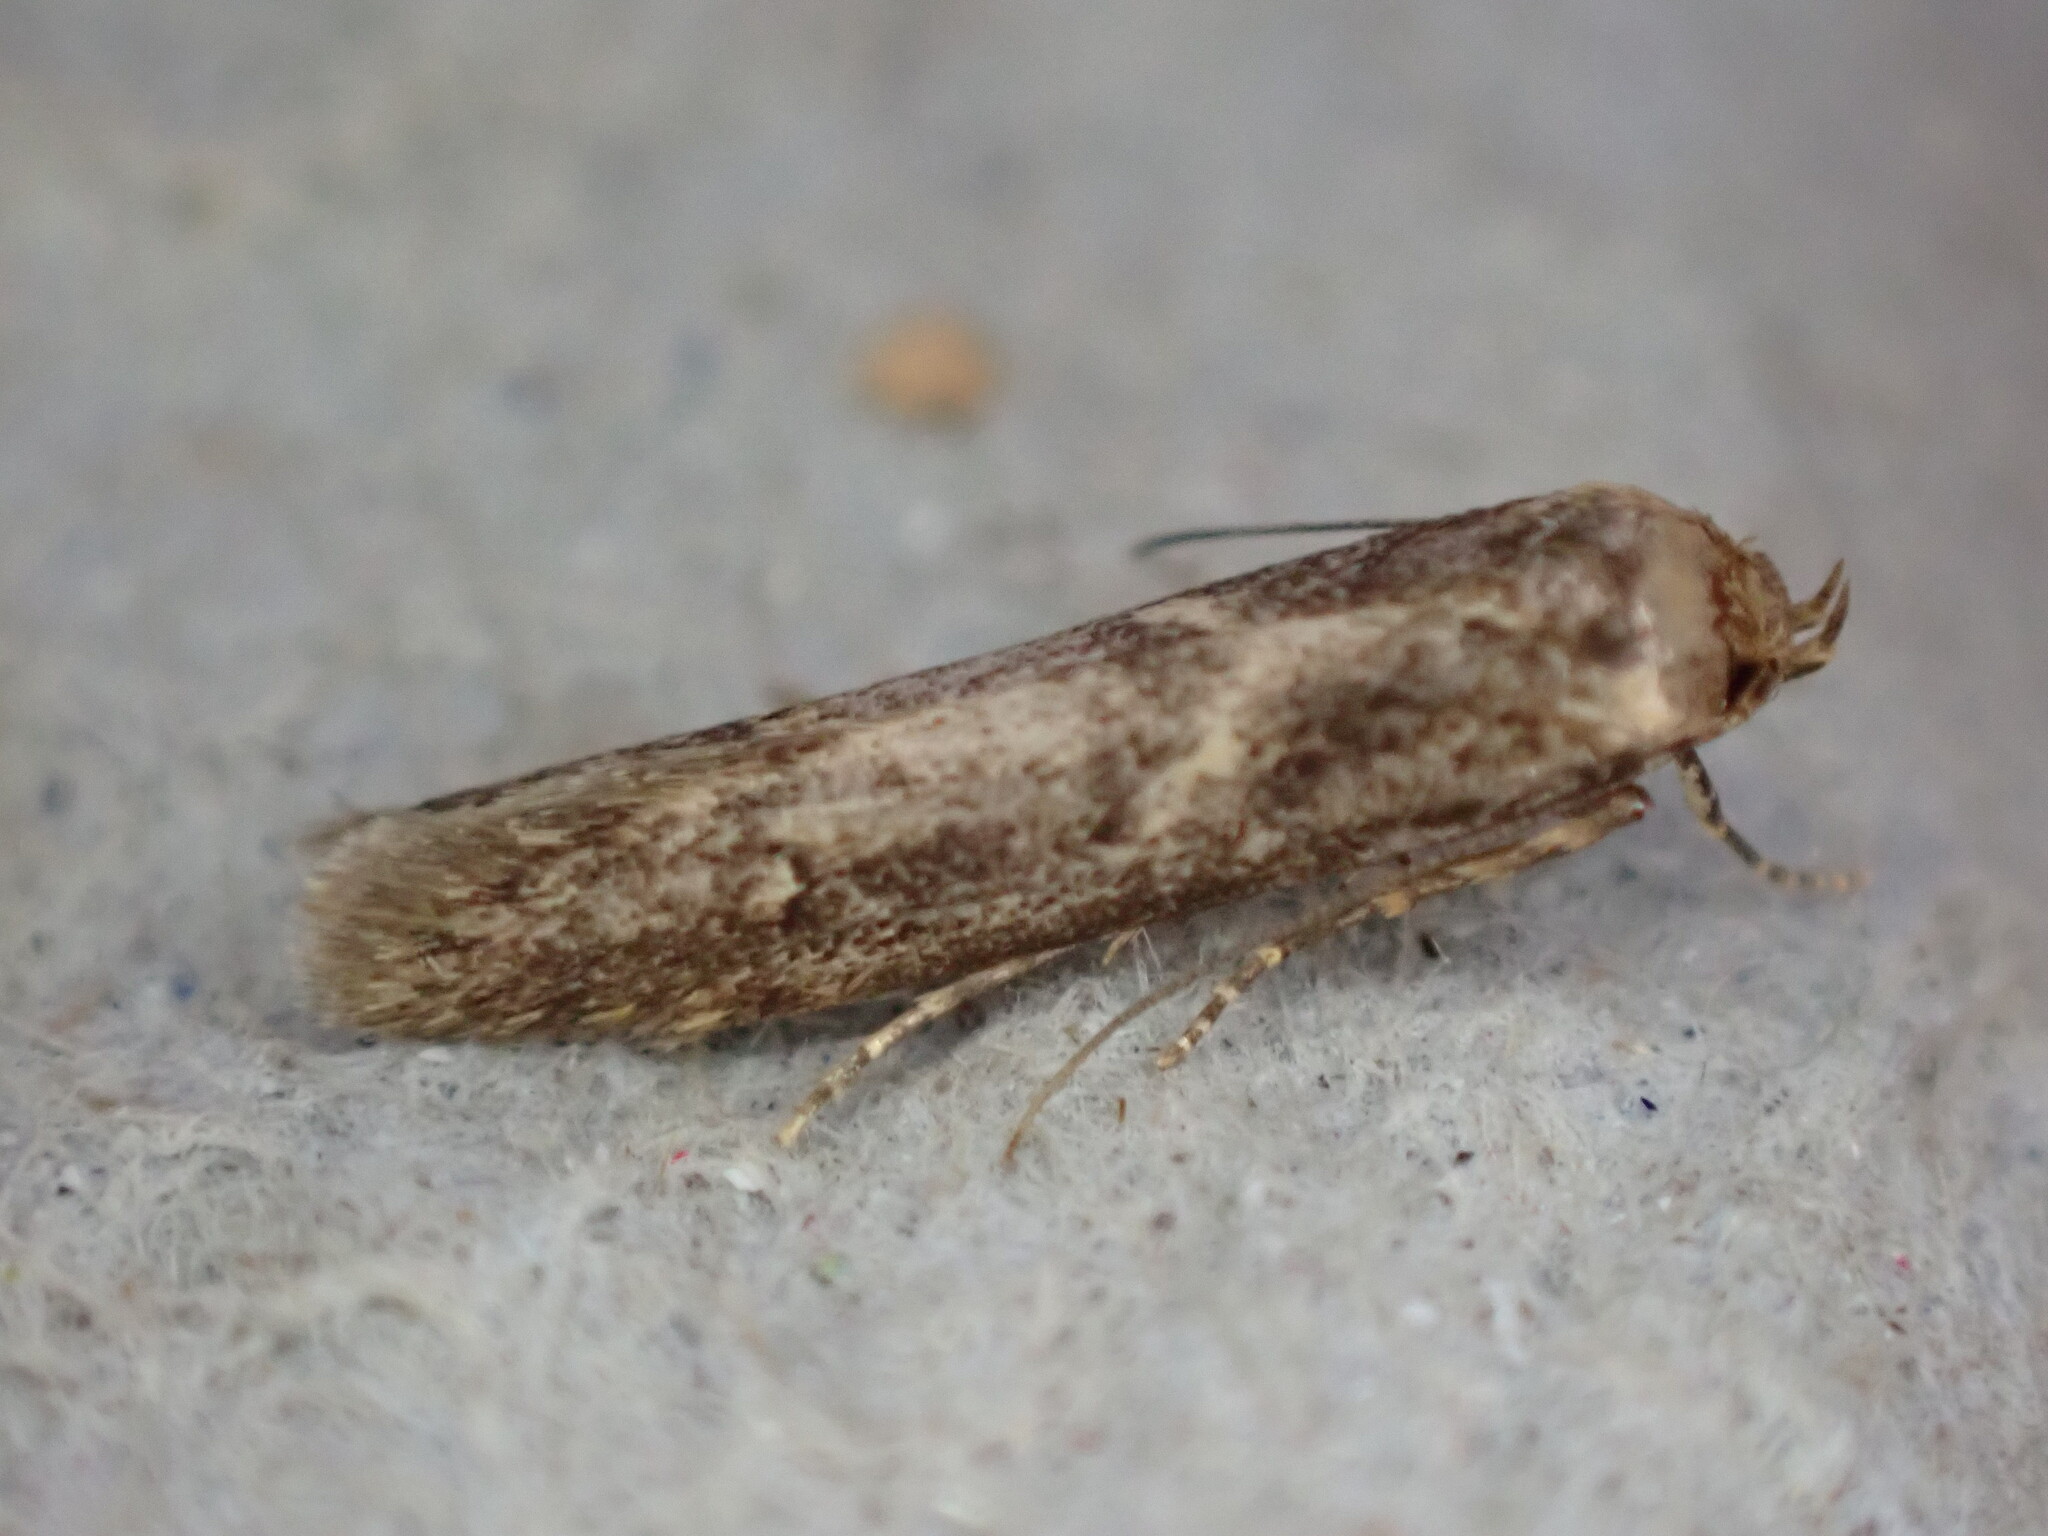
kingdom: Animalia
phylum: Arthropoda
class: Insecta
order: Lepidoptera
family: Blastobasidae
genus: Blastobasis
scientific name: Blastobasis adustella
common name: Dingy dowd
